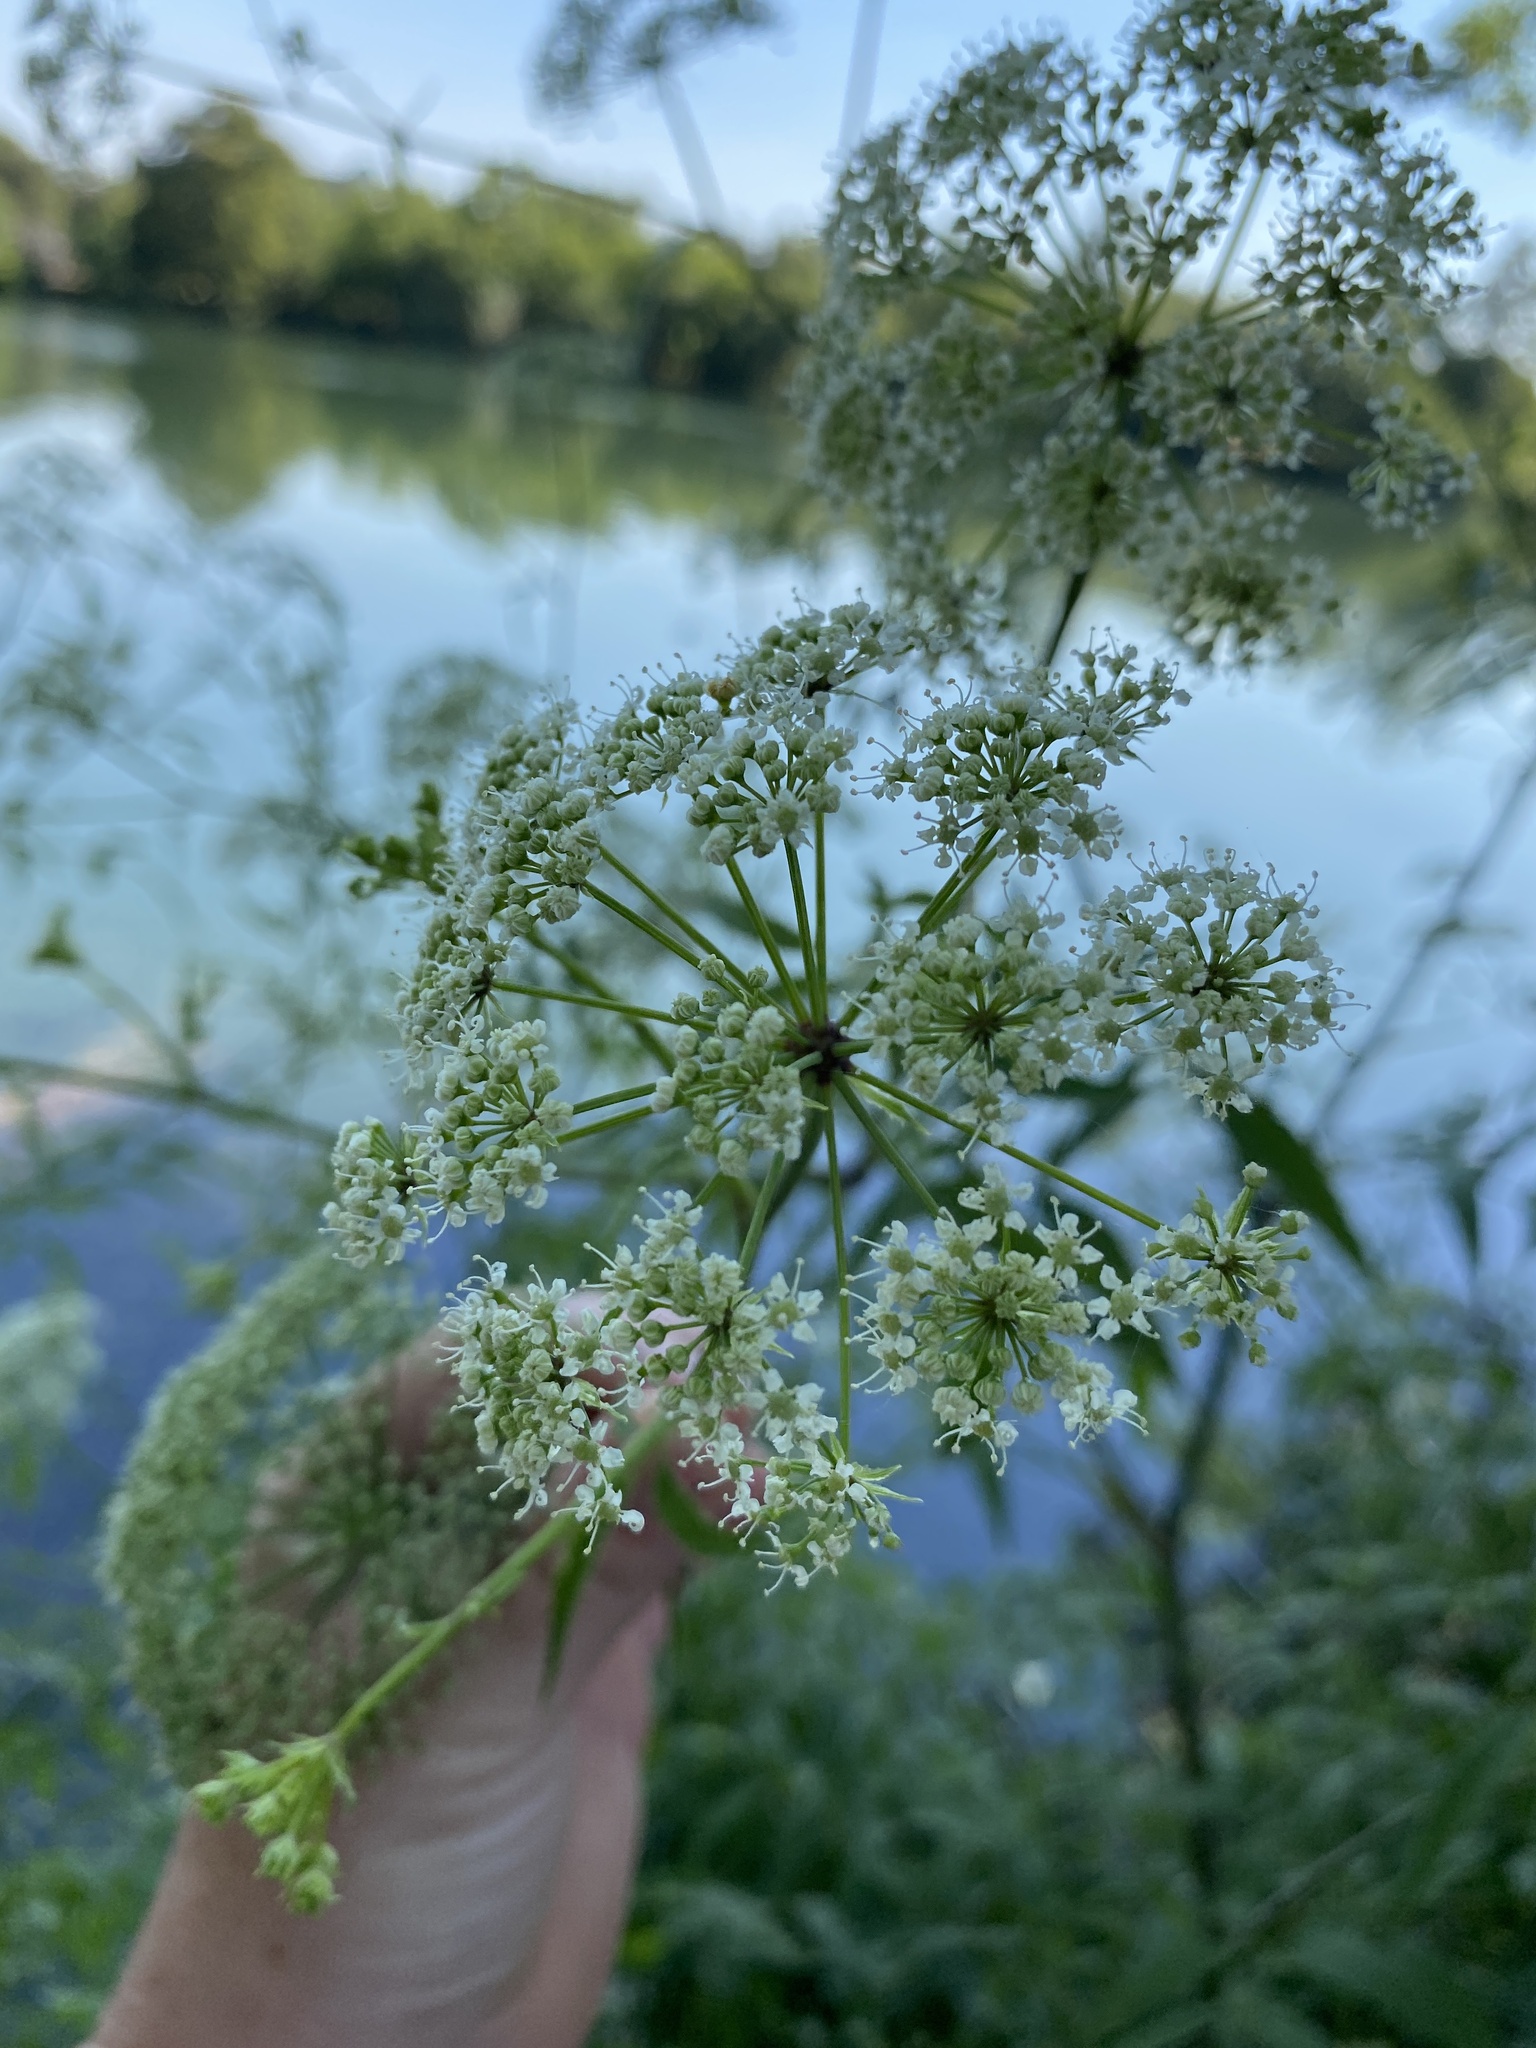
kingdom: Plantae
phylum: Tracheophyta
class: Magnoliopsida
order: Apiales
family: Apiaceae
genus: Cicuta
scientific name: Cicuta maculata
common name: Spotted cowbane
